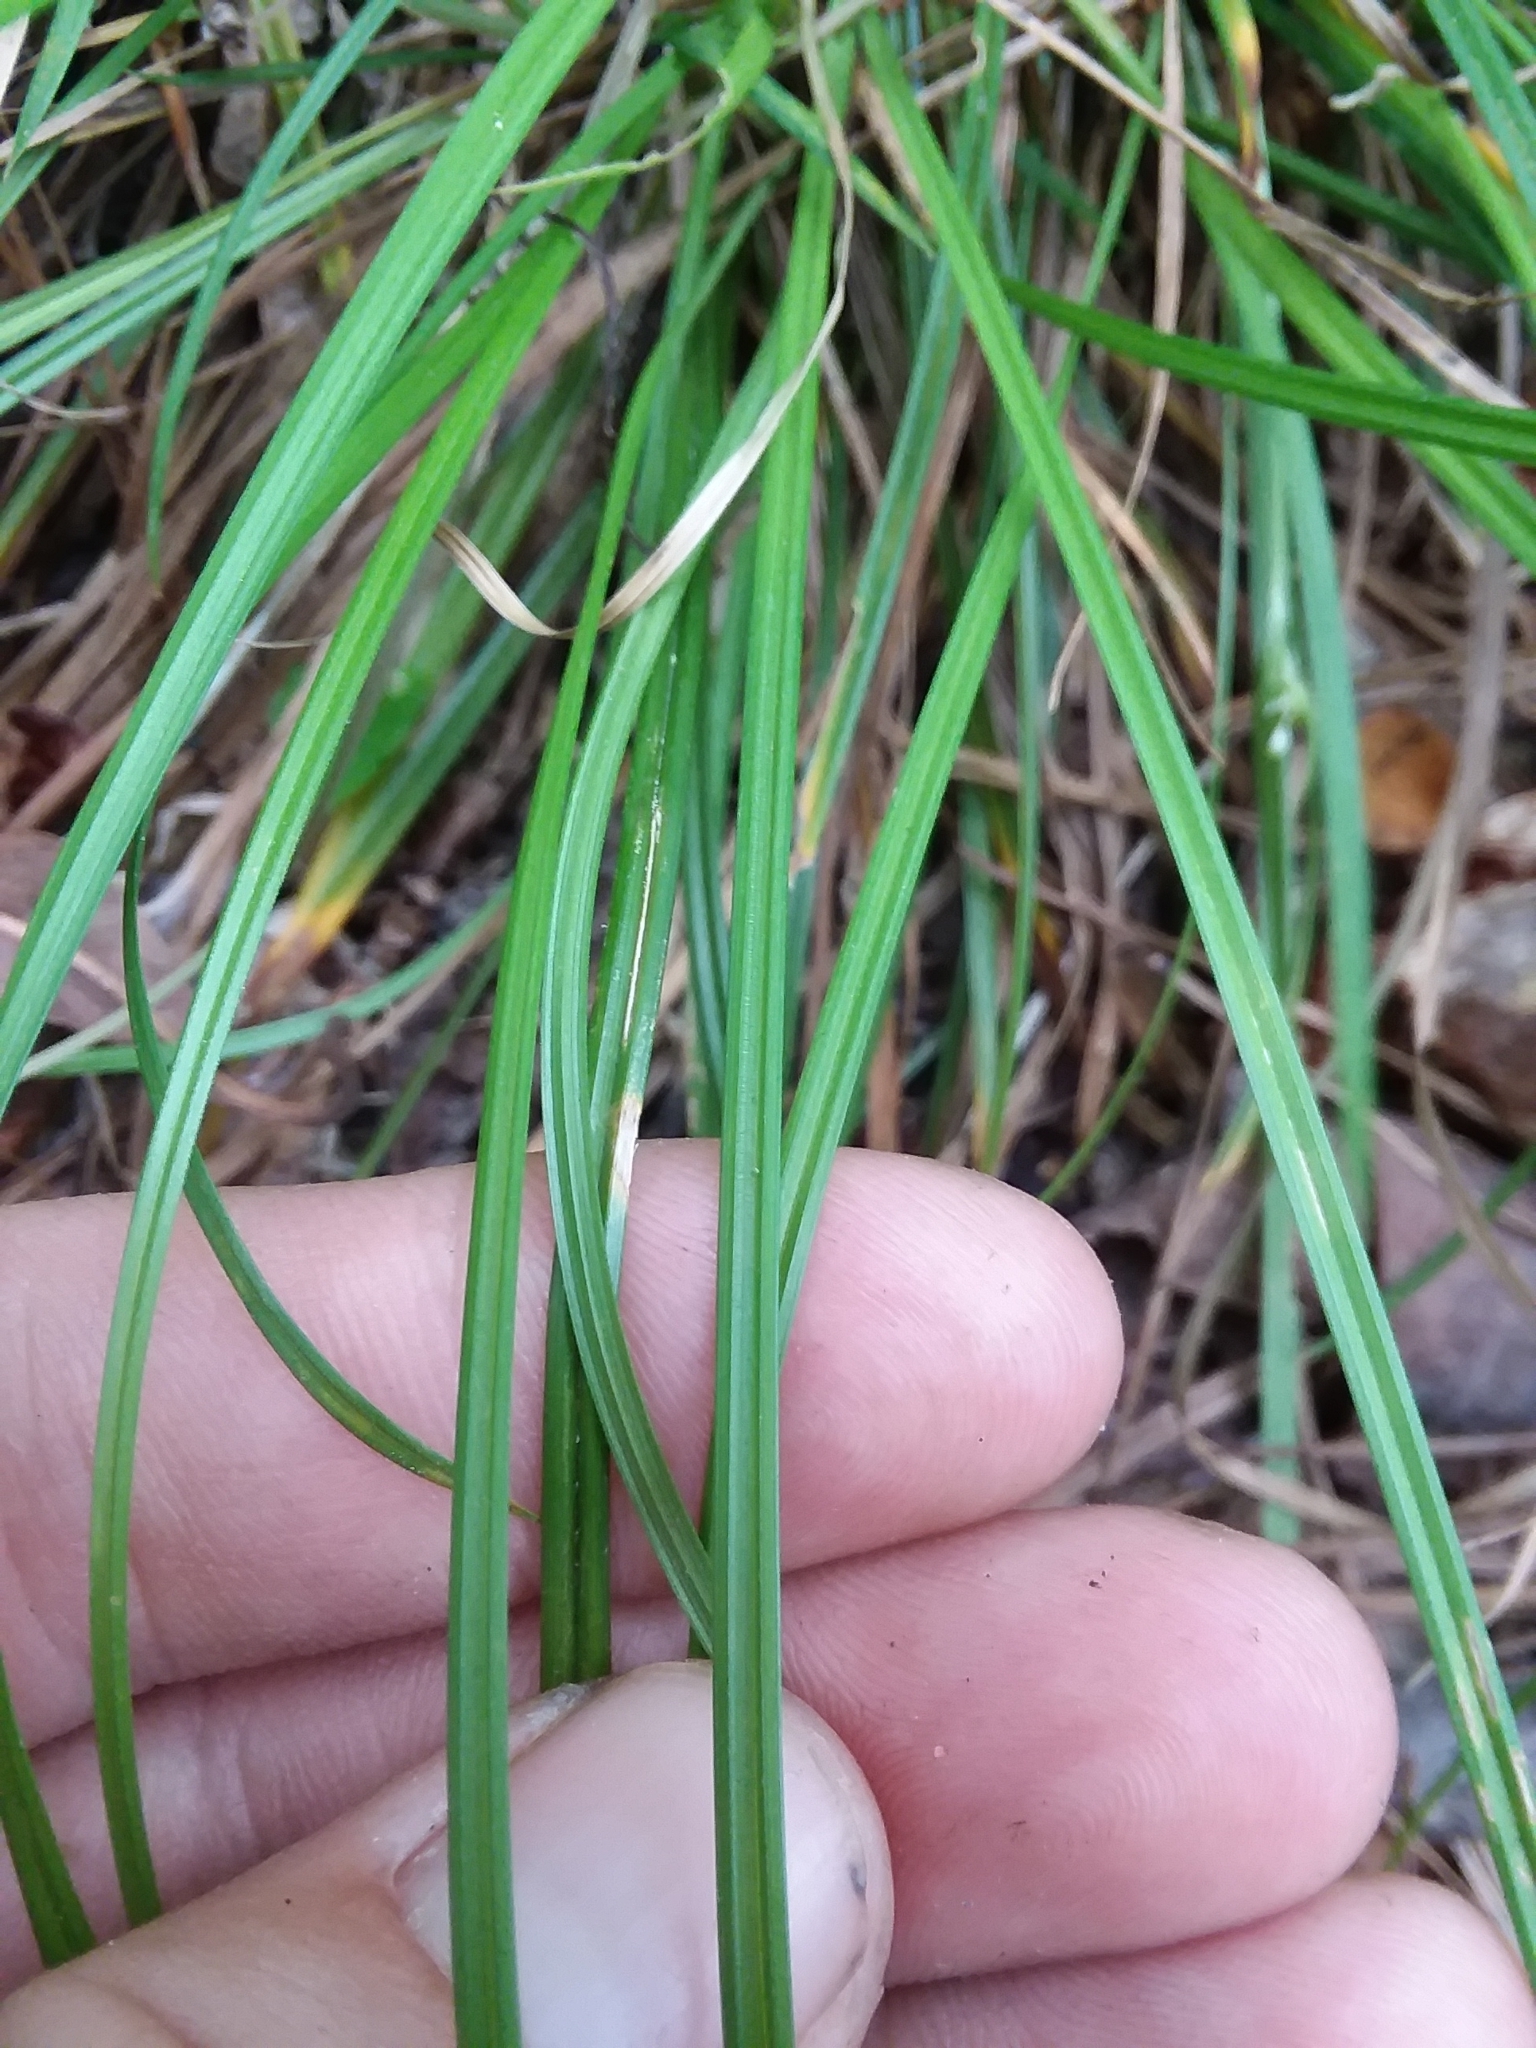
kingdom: Plantae
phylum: Tracheophyta
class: Liliopsida
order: Poales
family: Cyperaceae
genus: Carex
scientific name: Carex abscondita
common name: Thicket sedge
